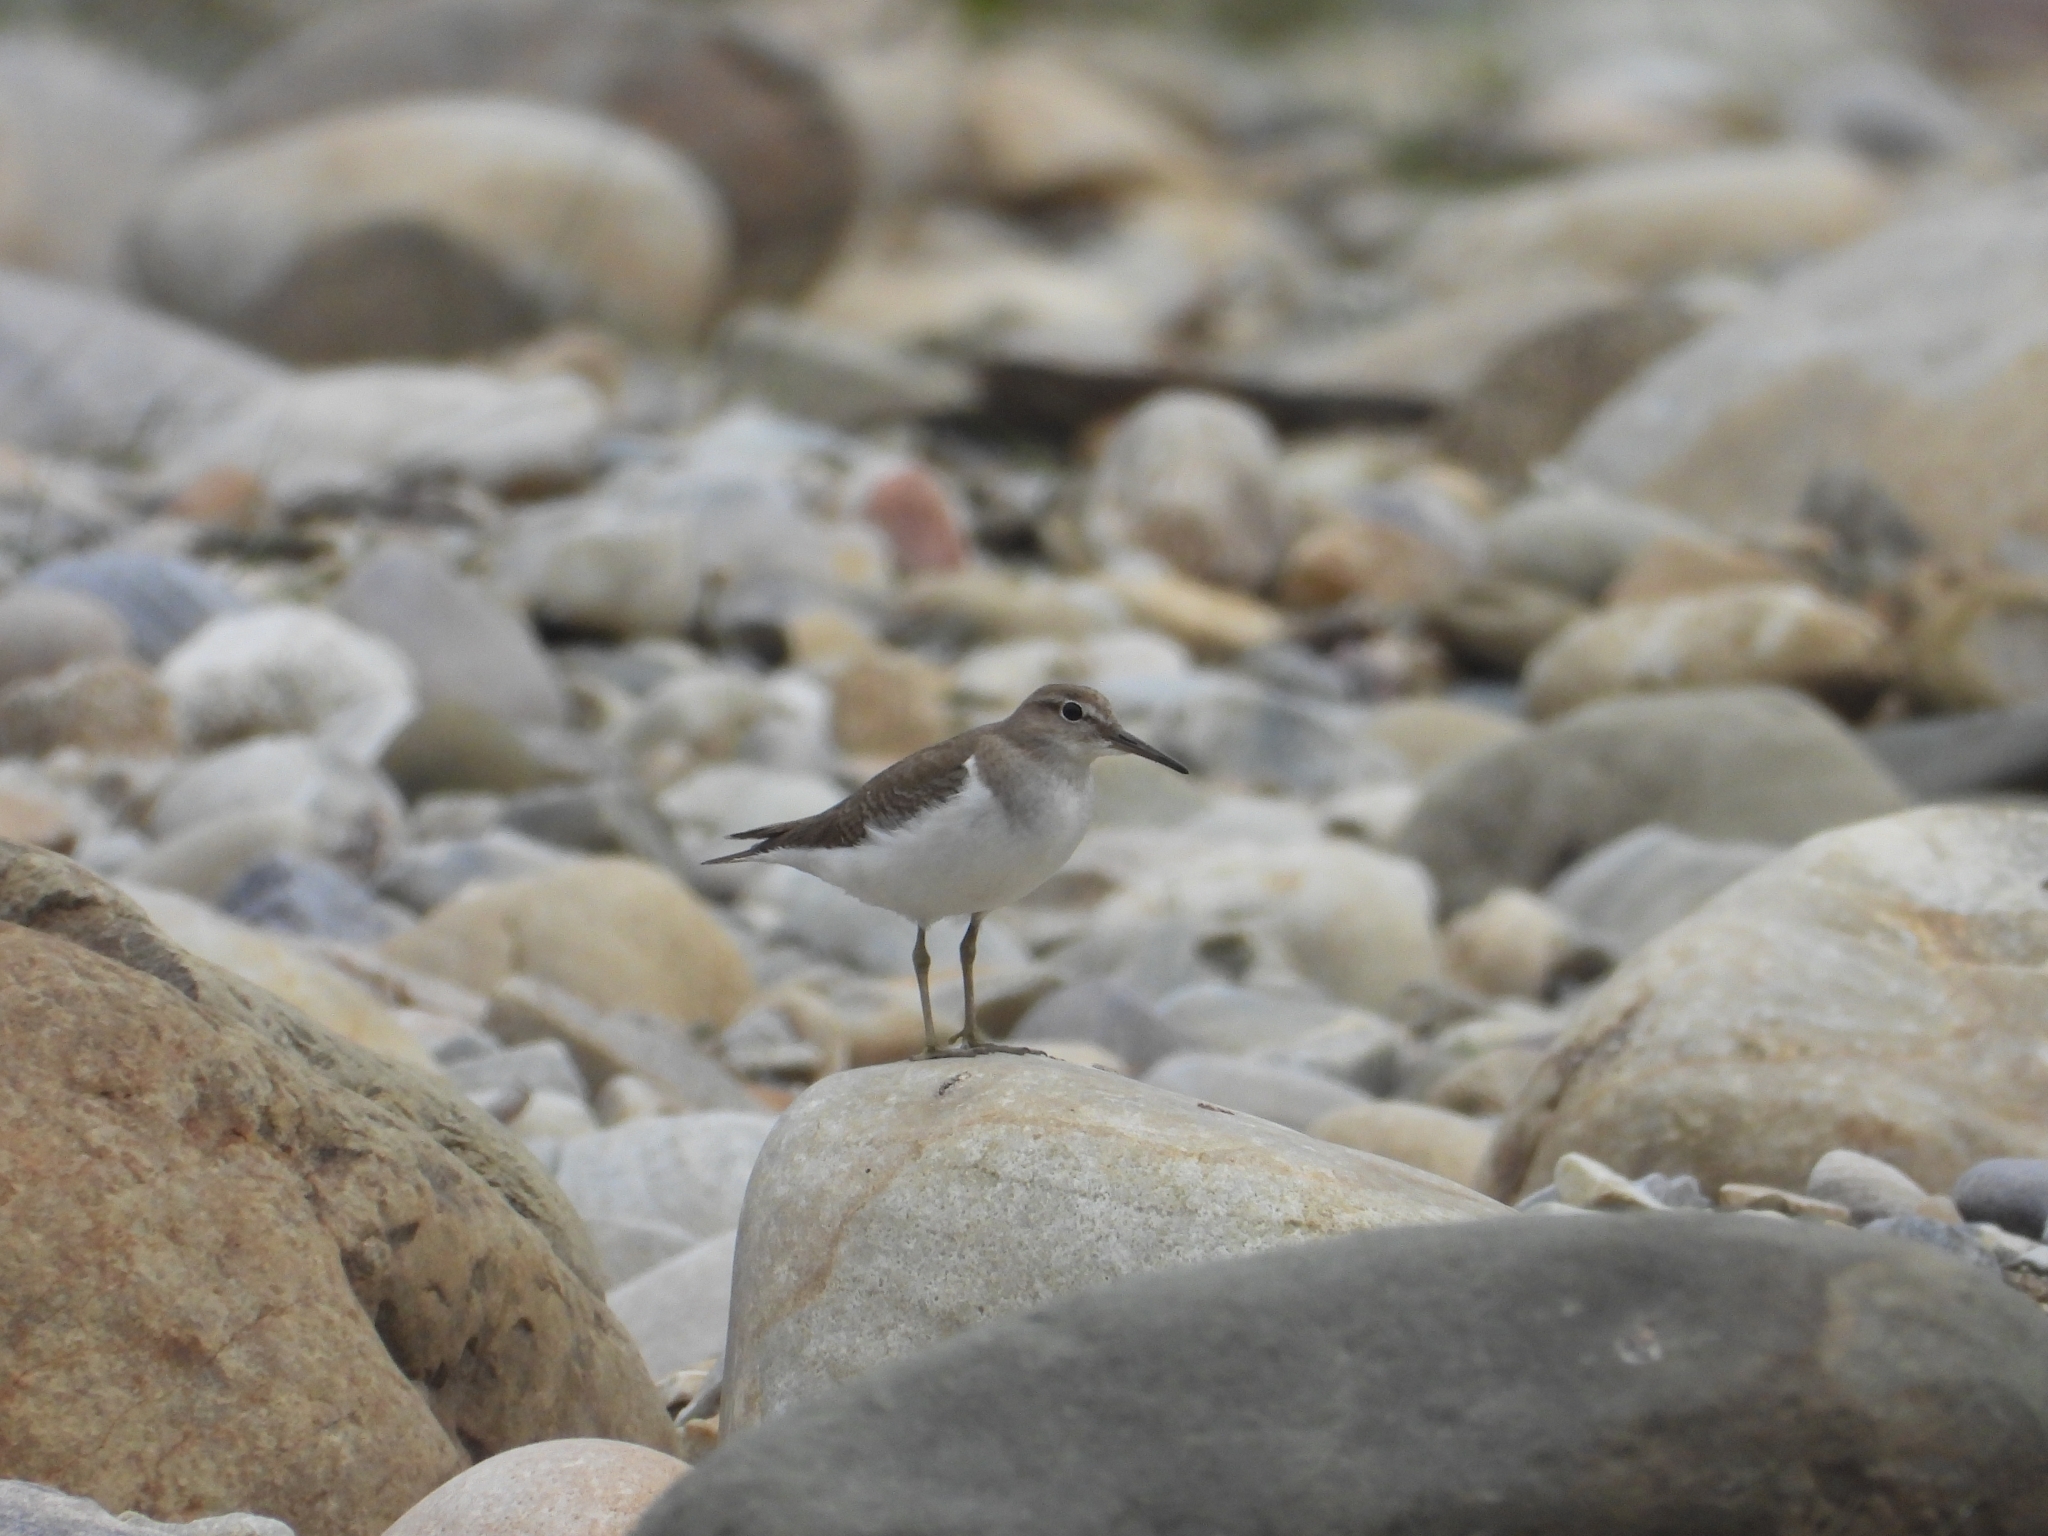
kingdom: Animalia
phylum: Chordata
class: Aves
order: Charadriiformes
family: Scolopacidae
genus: Actitis
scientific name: Actitis hypoleucos
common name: Common sandpiper
